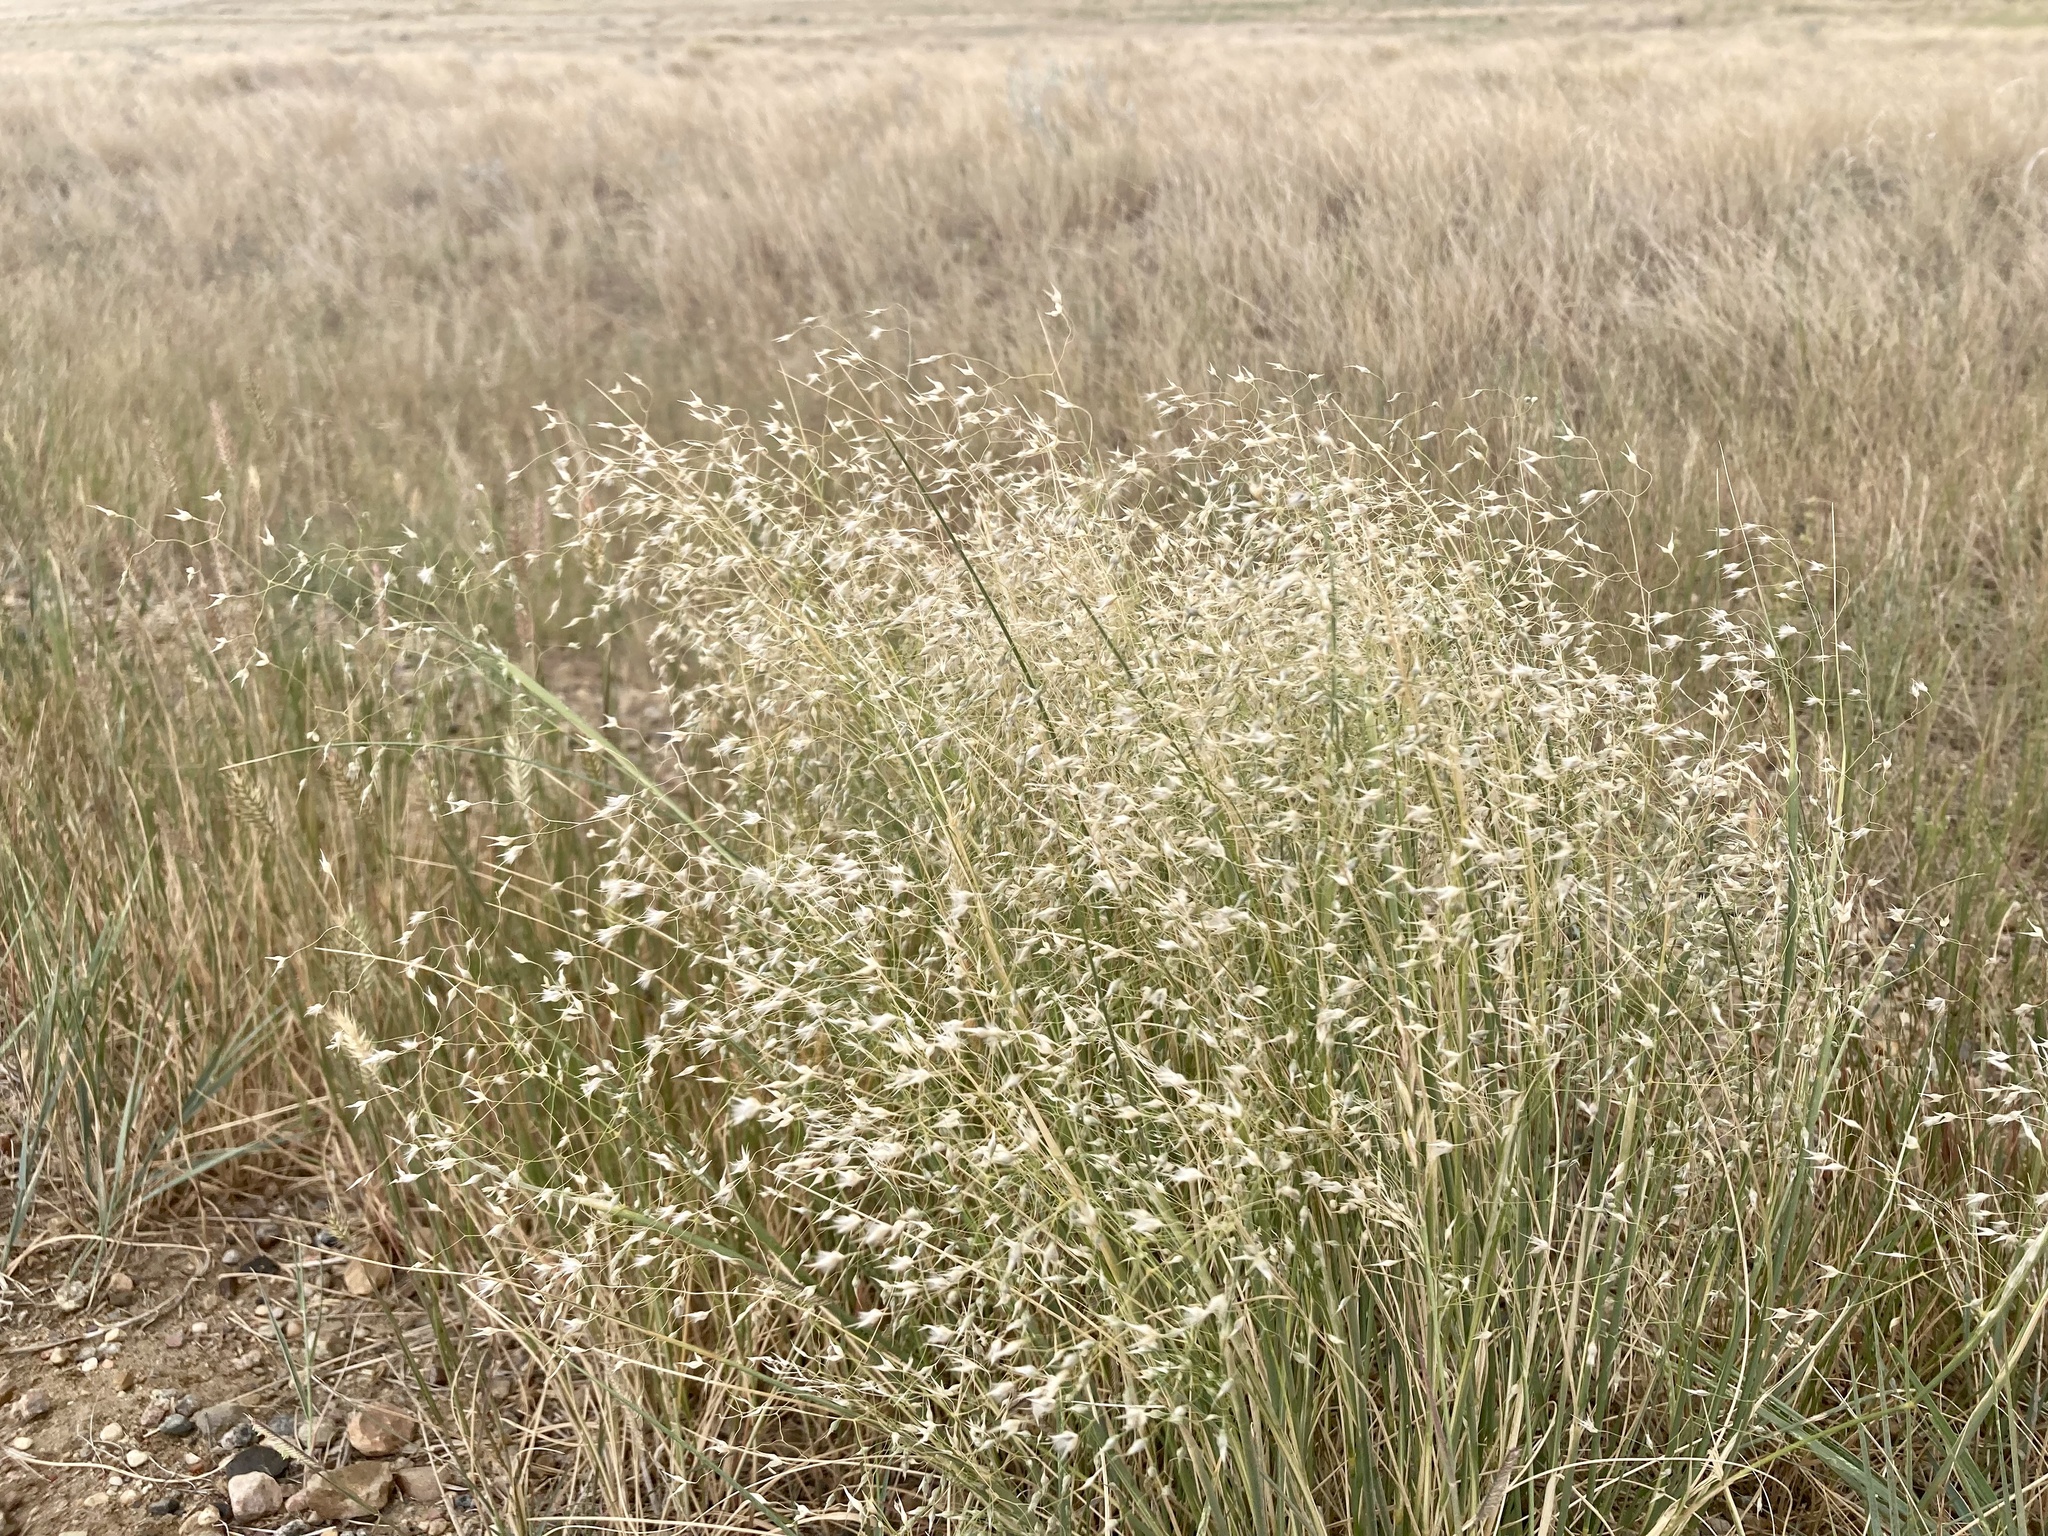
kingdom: Plantae
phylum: Tracheophyta
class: Liliopsida
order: Poales
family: Poaceae
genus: Eriocoma
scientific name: Eriocoma hymenoides
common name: Indian mountain ricegrass
